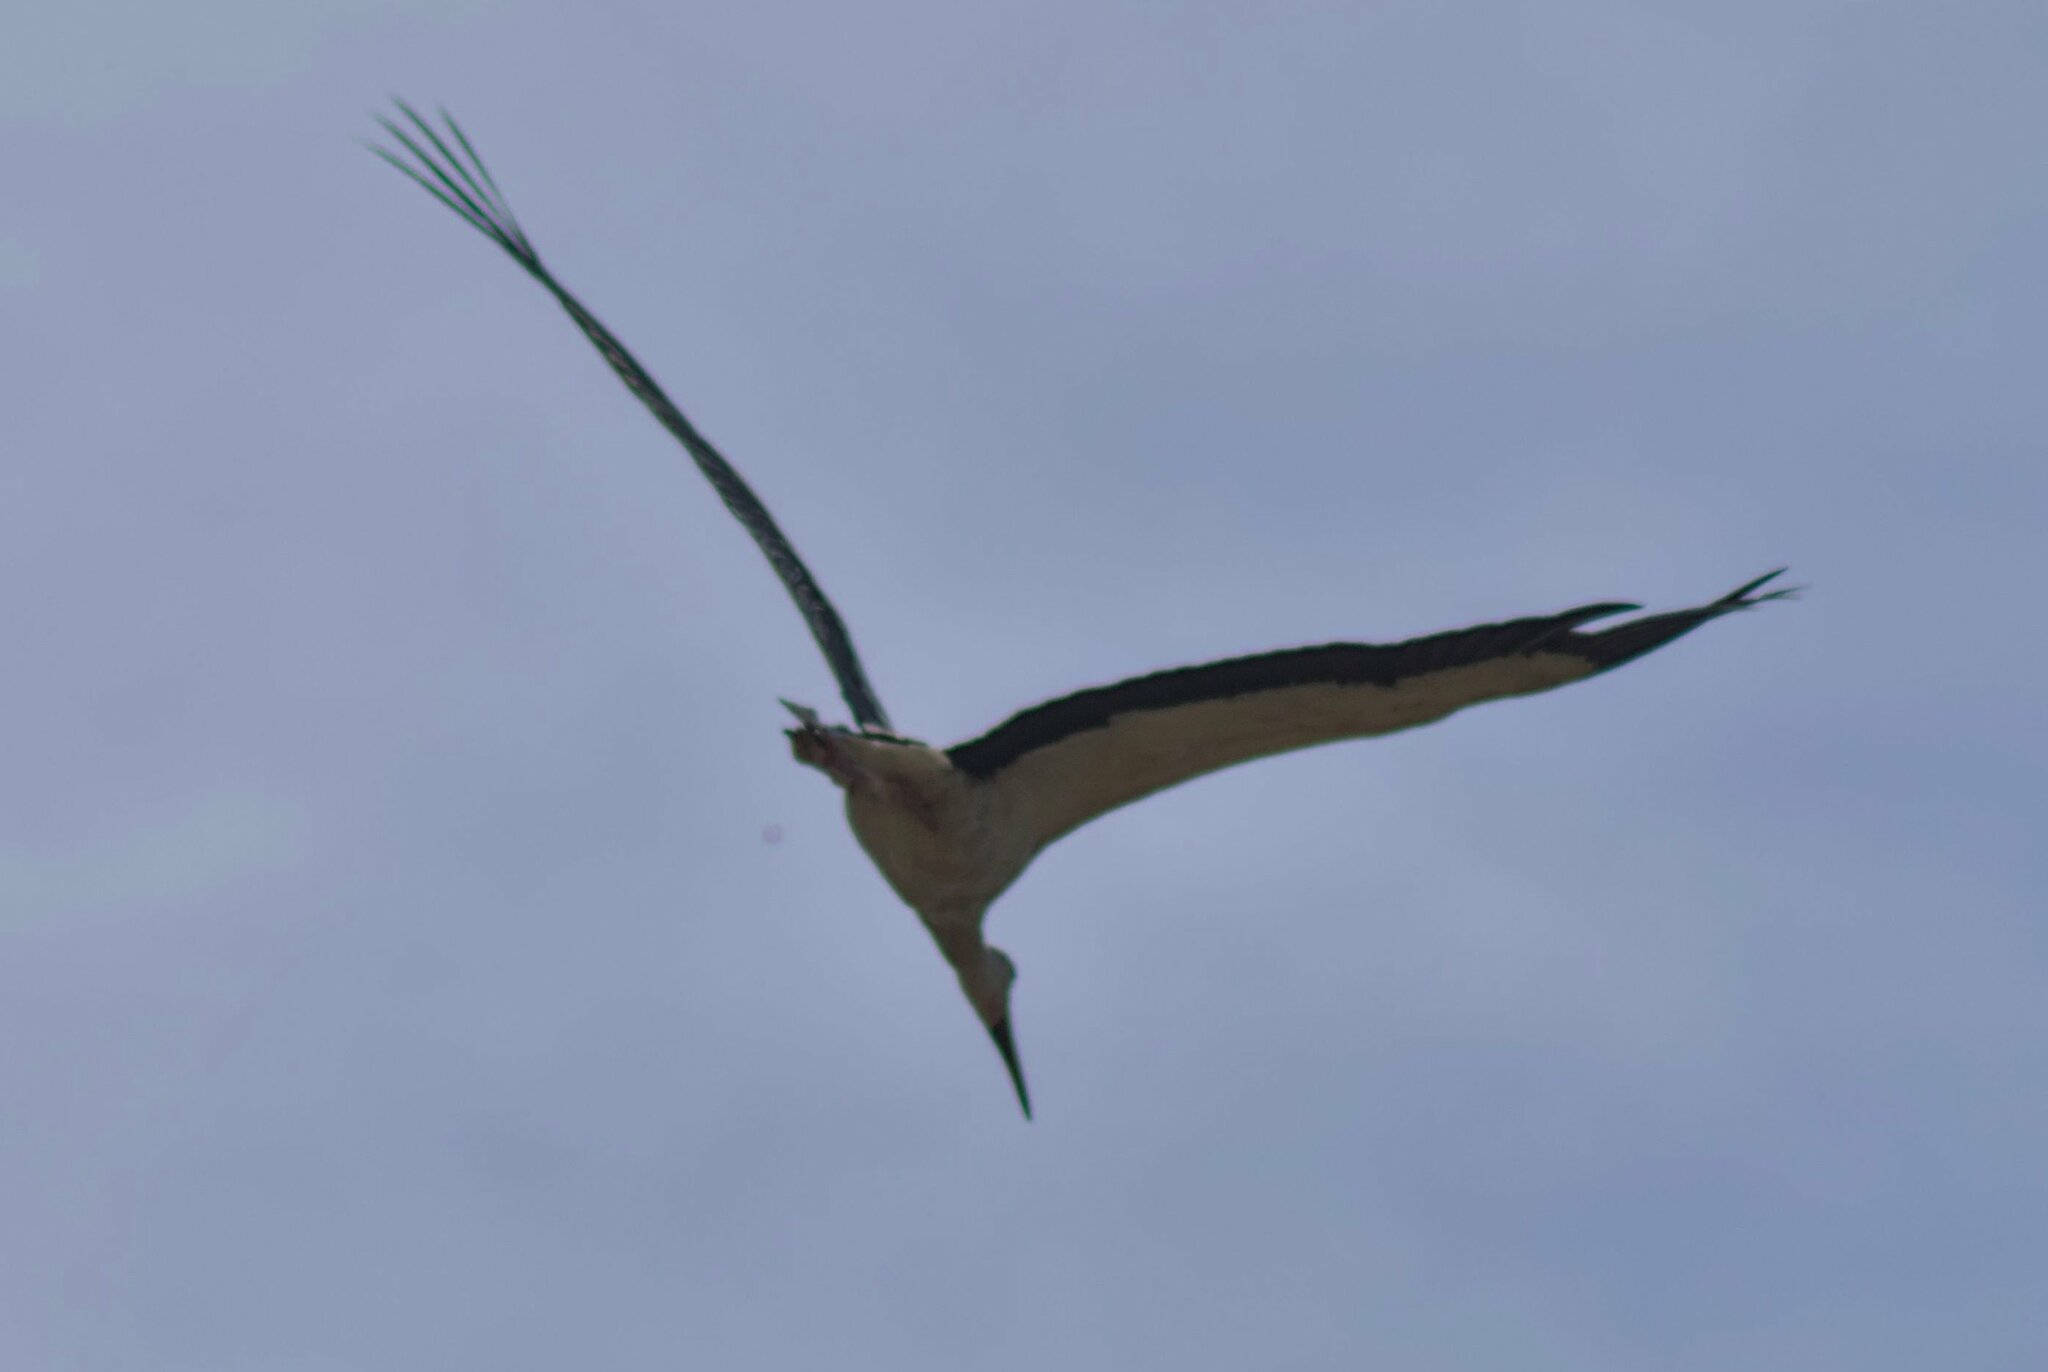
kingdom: Animalia
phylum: Chordata
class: Aves
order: Ciconiiformes
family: Ciconiidae
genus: Ciconia
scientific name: Ciconia ciconia
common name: White stork
